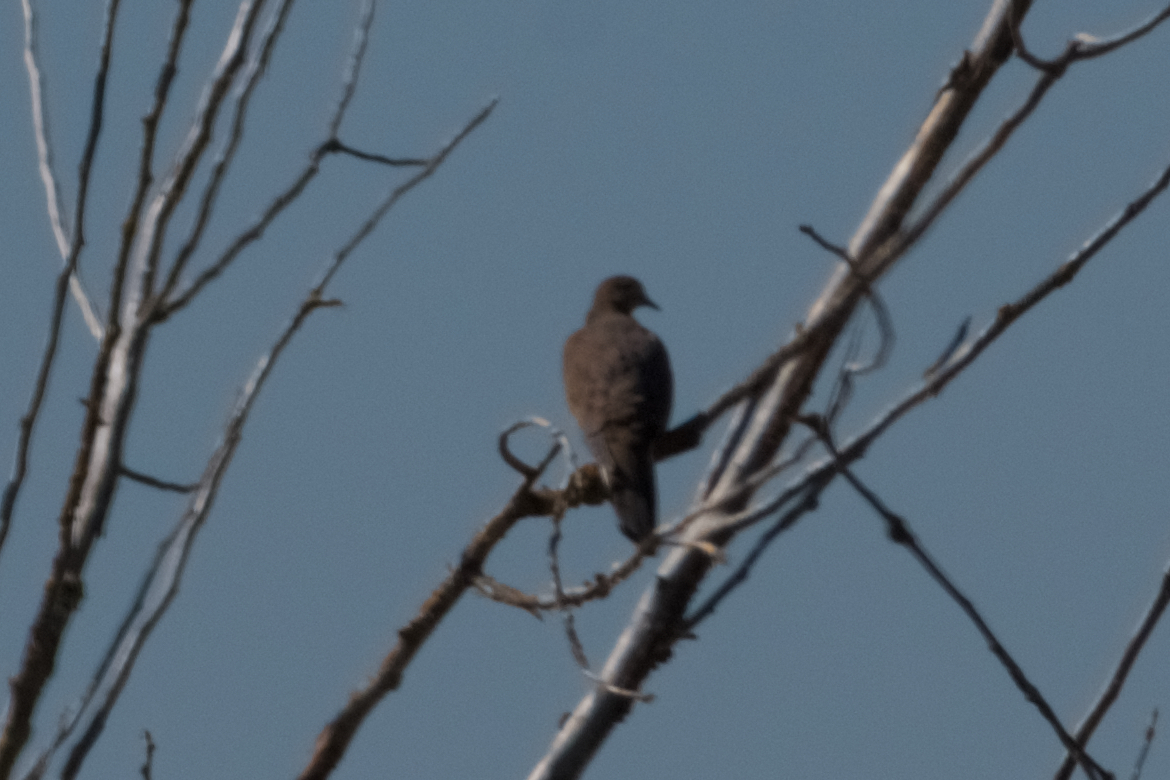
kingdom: Animalia
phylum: Chordata
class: Aves
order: Columbiformes
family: Columbidae
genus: Zenaida
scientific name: Zenaida macroura
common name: Mourning dove
